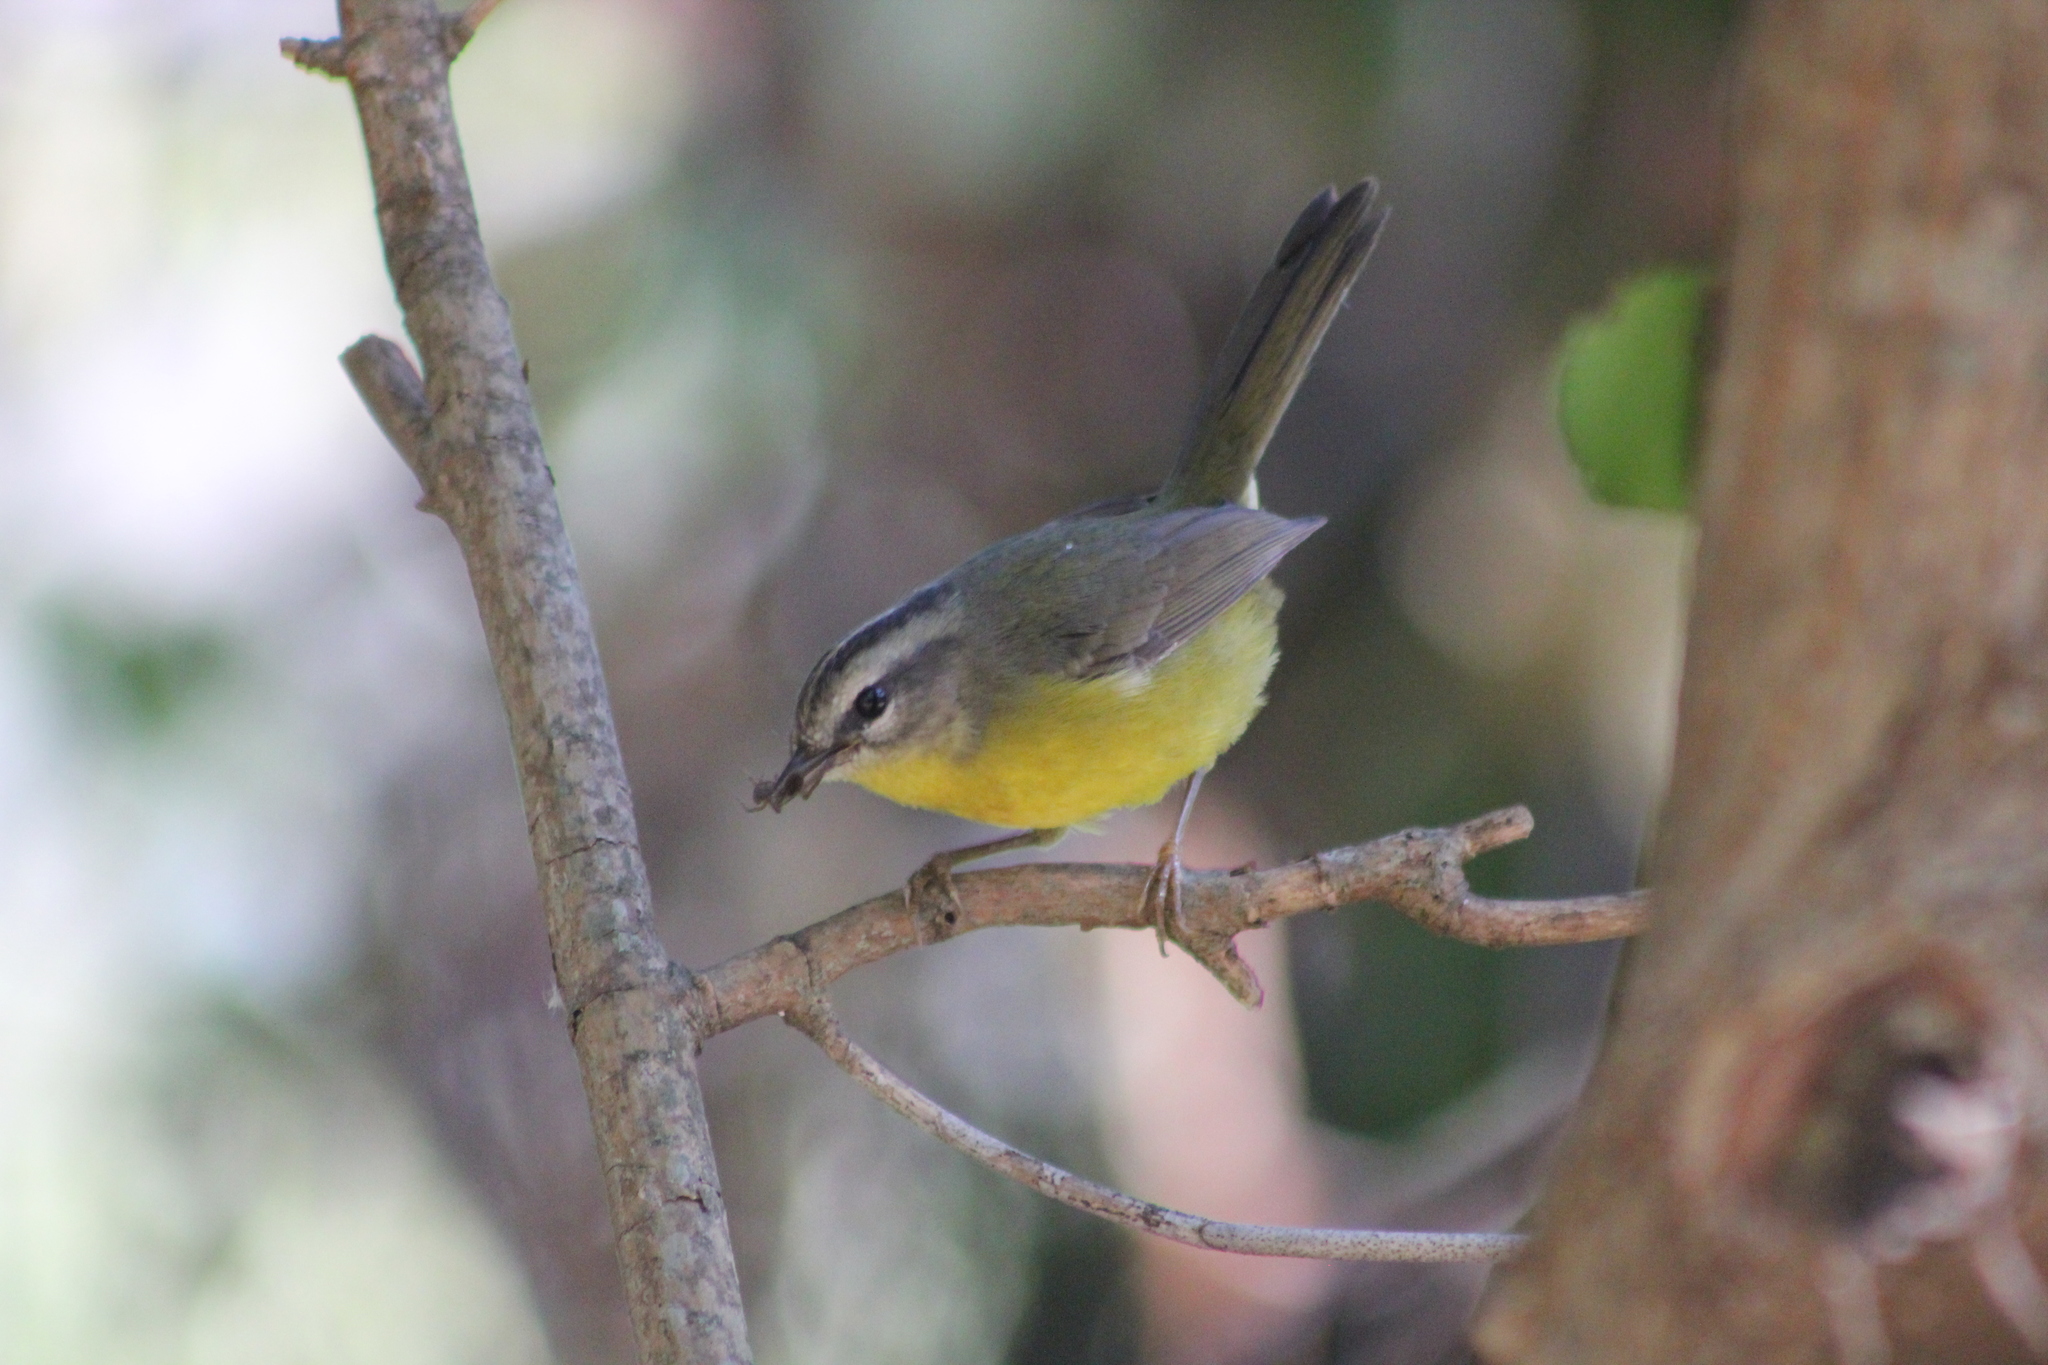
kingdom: Animalia
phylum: Chordata
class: Aves
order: Passeriformes
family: Parulidae
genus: Basileuterus
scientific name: Basileuterus culicivorus
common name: Golden-crowned warbler
